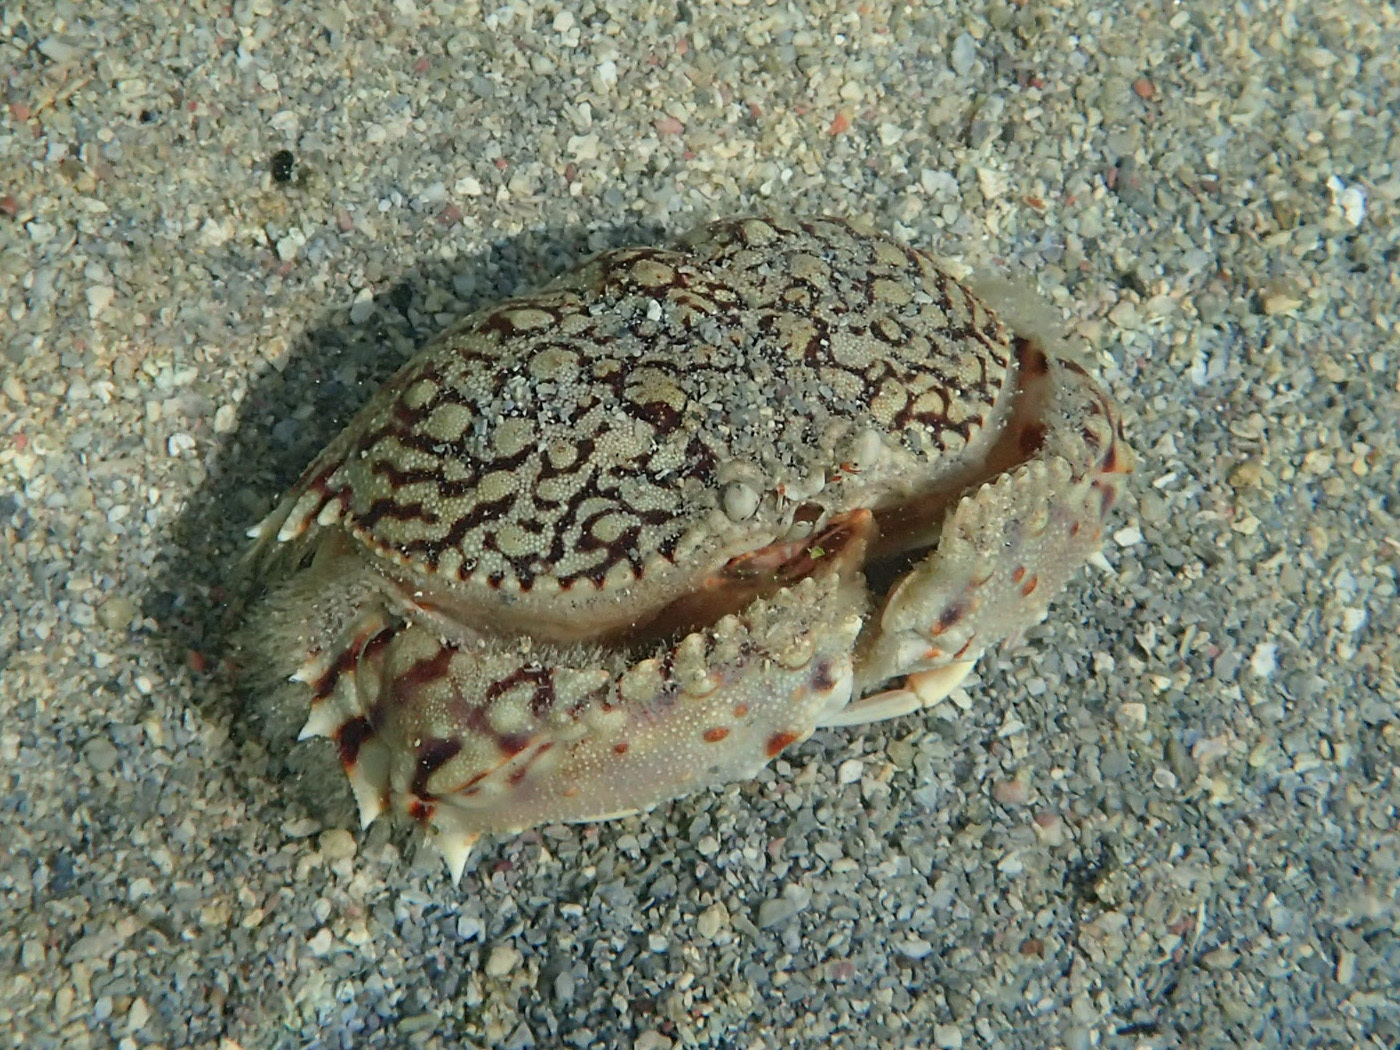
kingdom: Animalia
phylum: Arthropoda
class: Malacostraca
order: Decapoda
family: Calappidae
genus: Calappa
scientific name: Calappa ocellata
